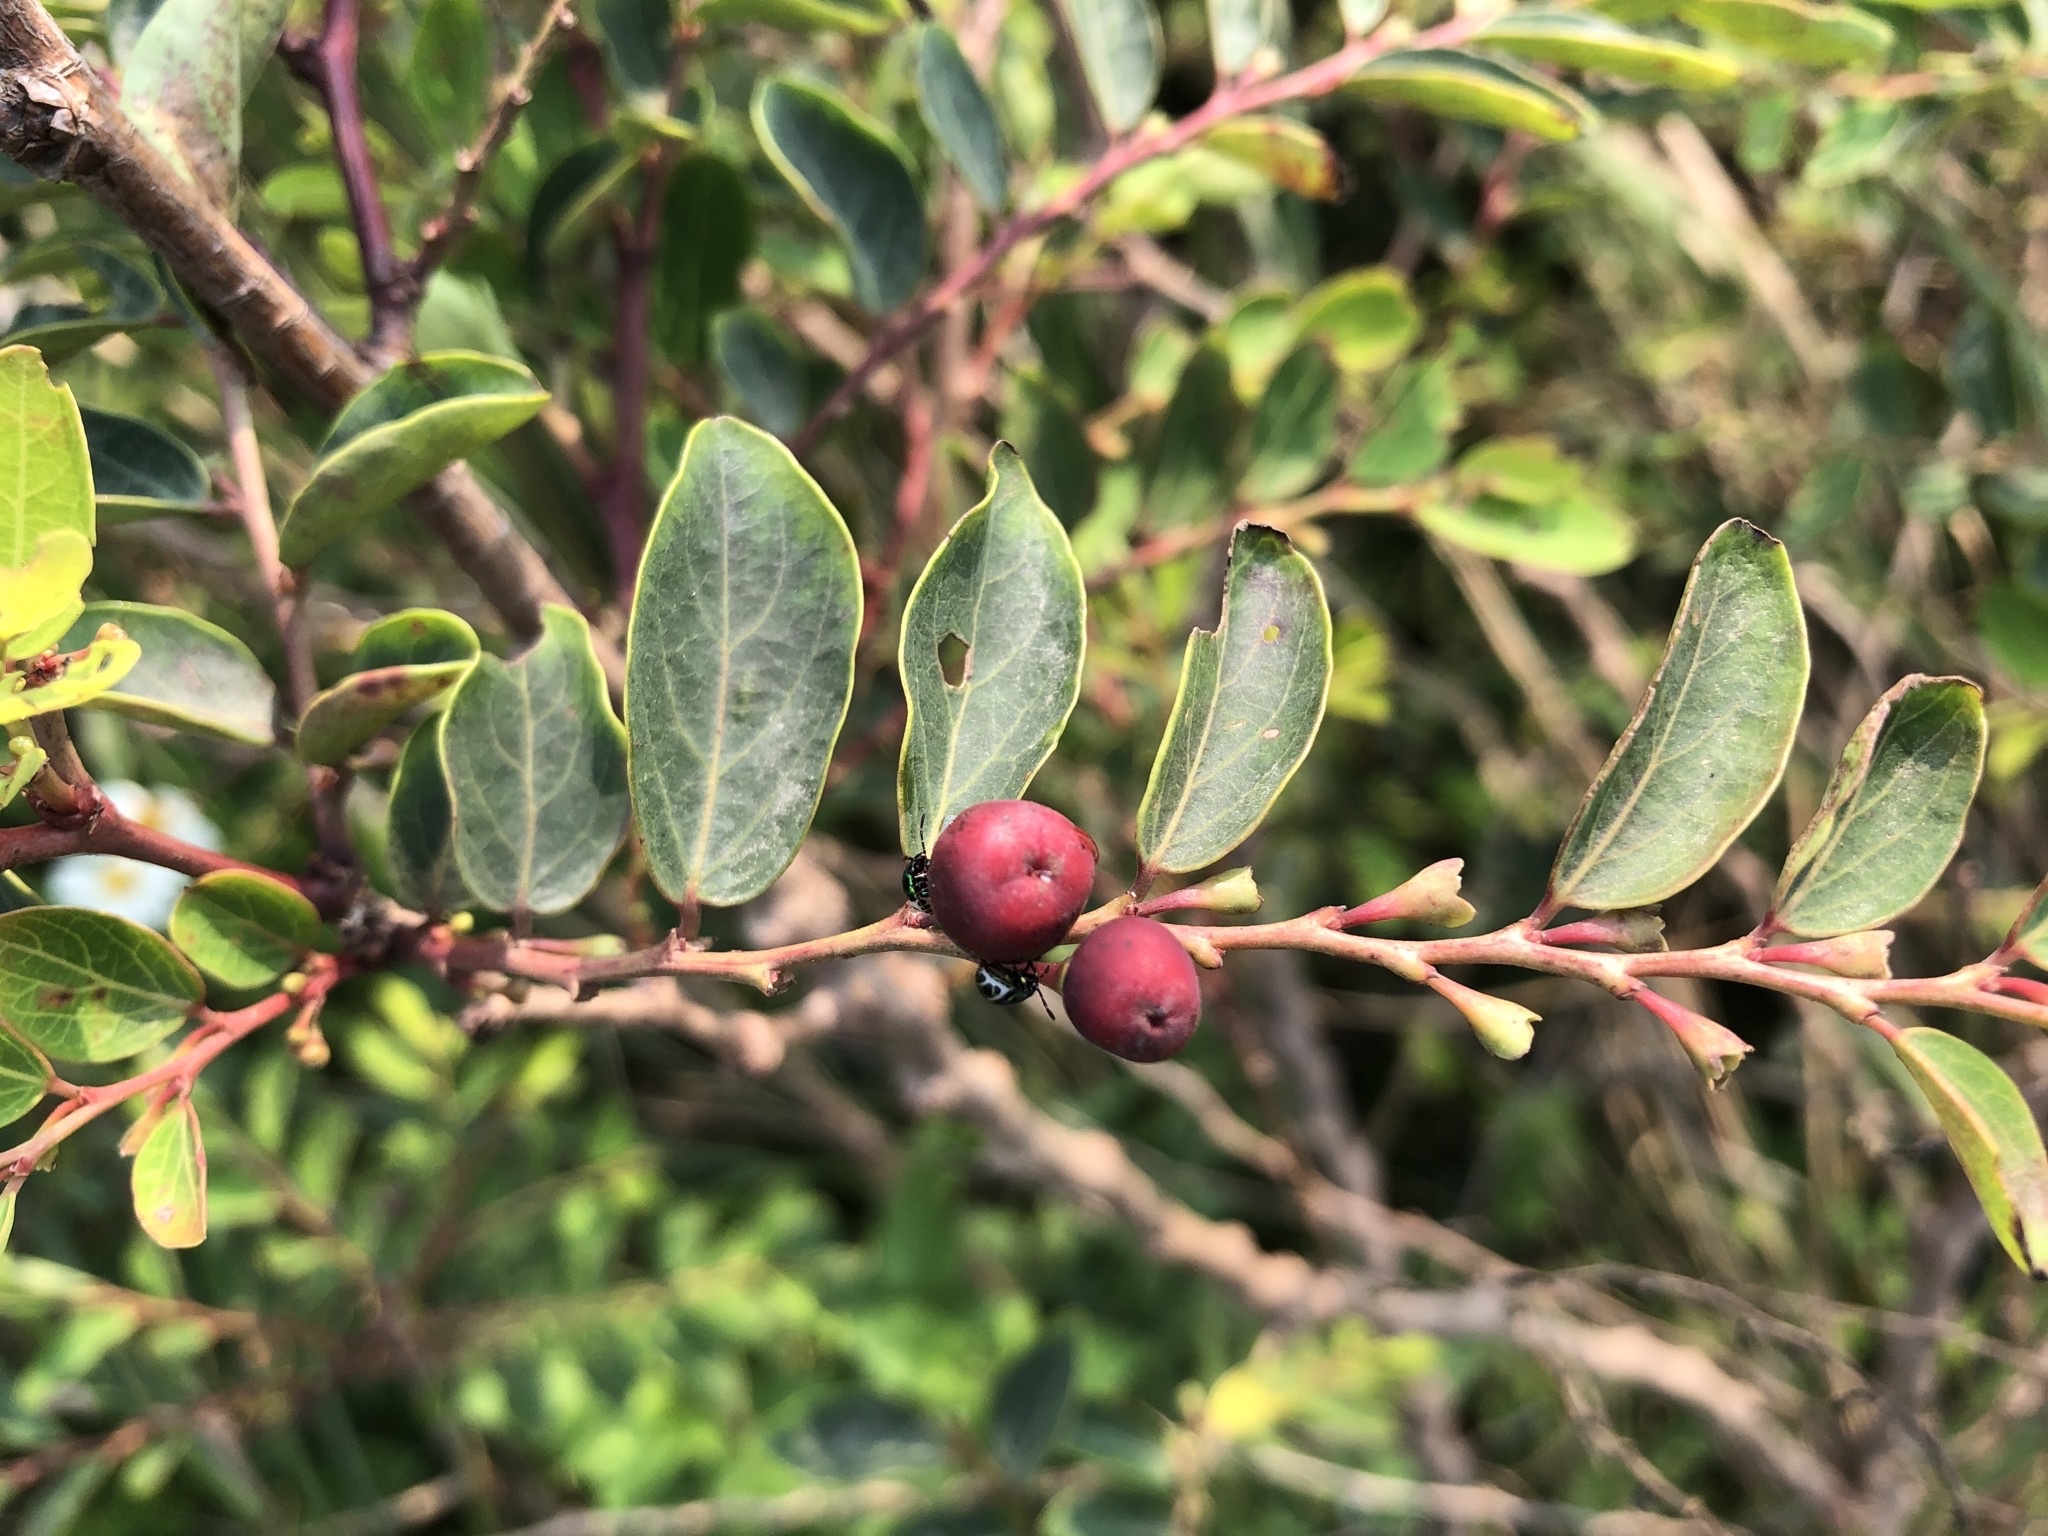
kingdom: Plantae
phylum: Tracheophyta
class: Magnoliopsida
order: Malpighiales
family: Phyllanthaceae
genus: Breynia
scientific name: Breynia vitis-idaea
